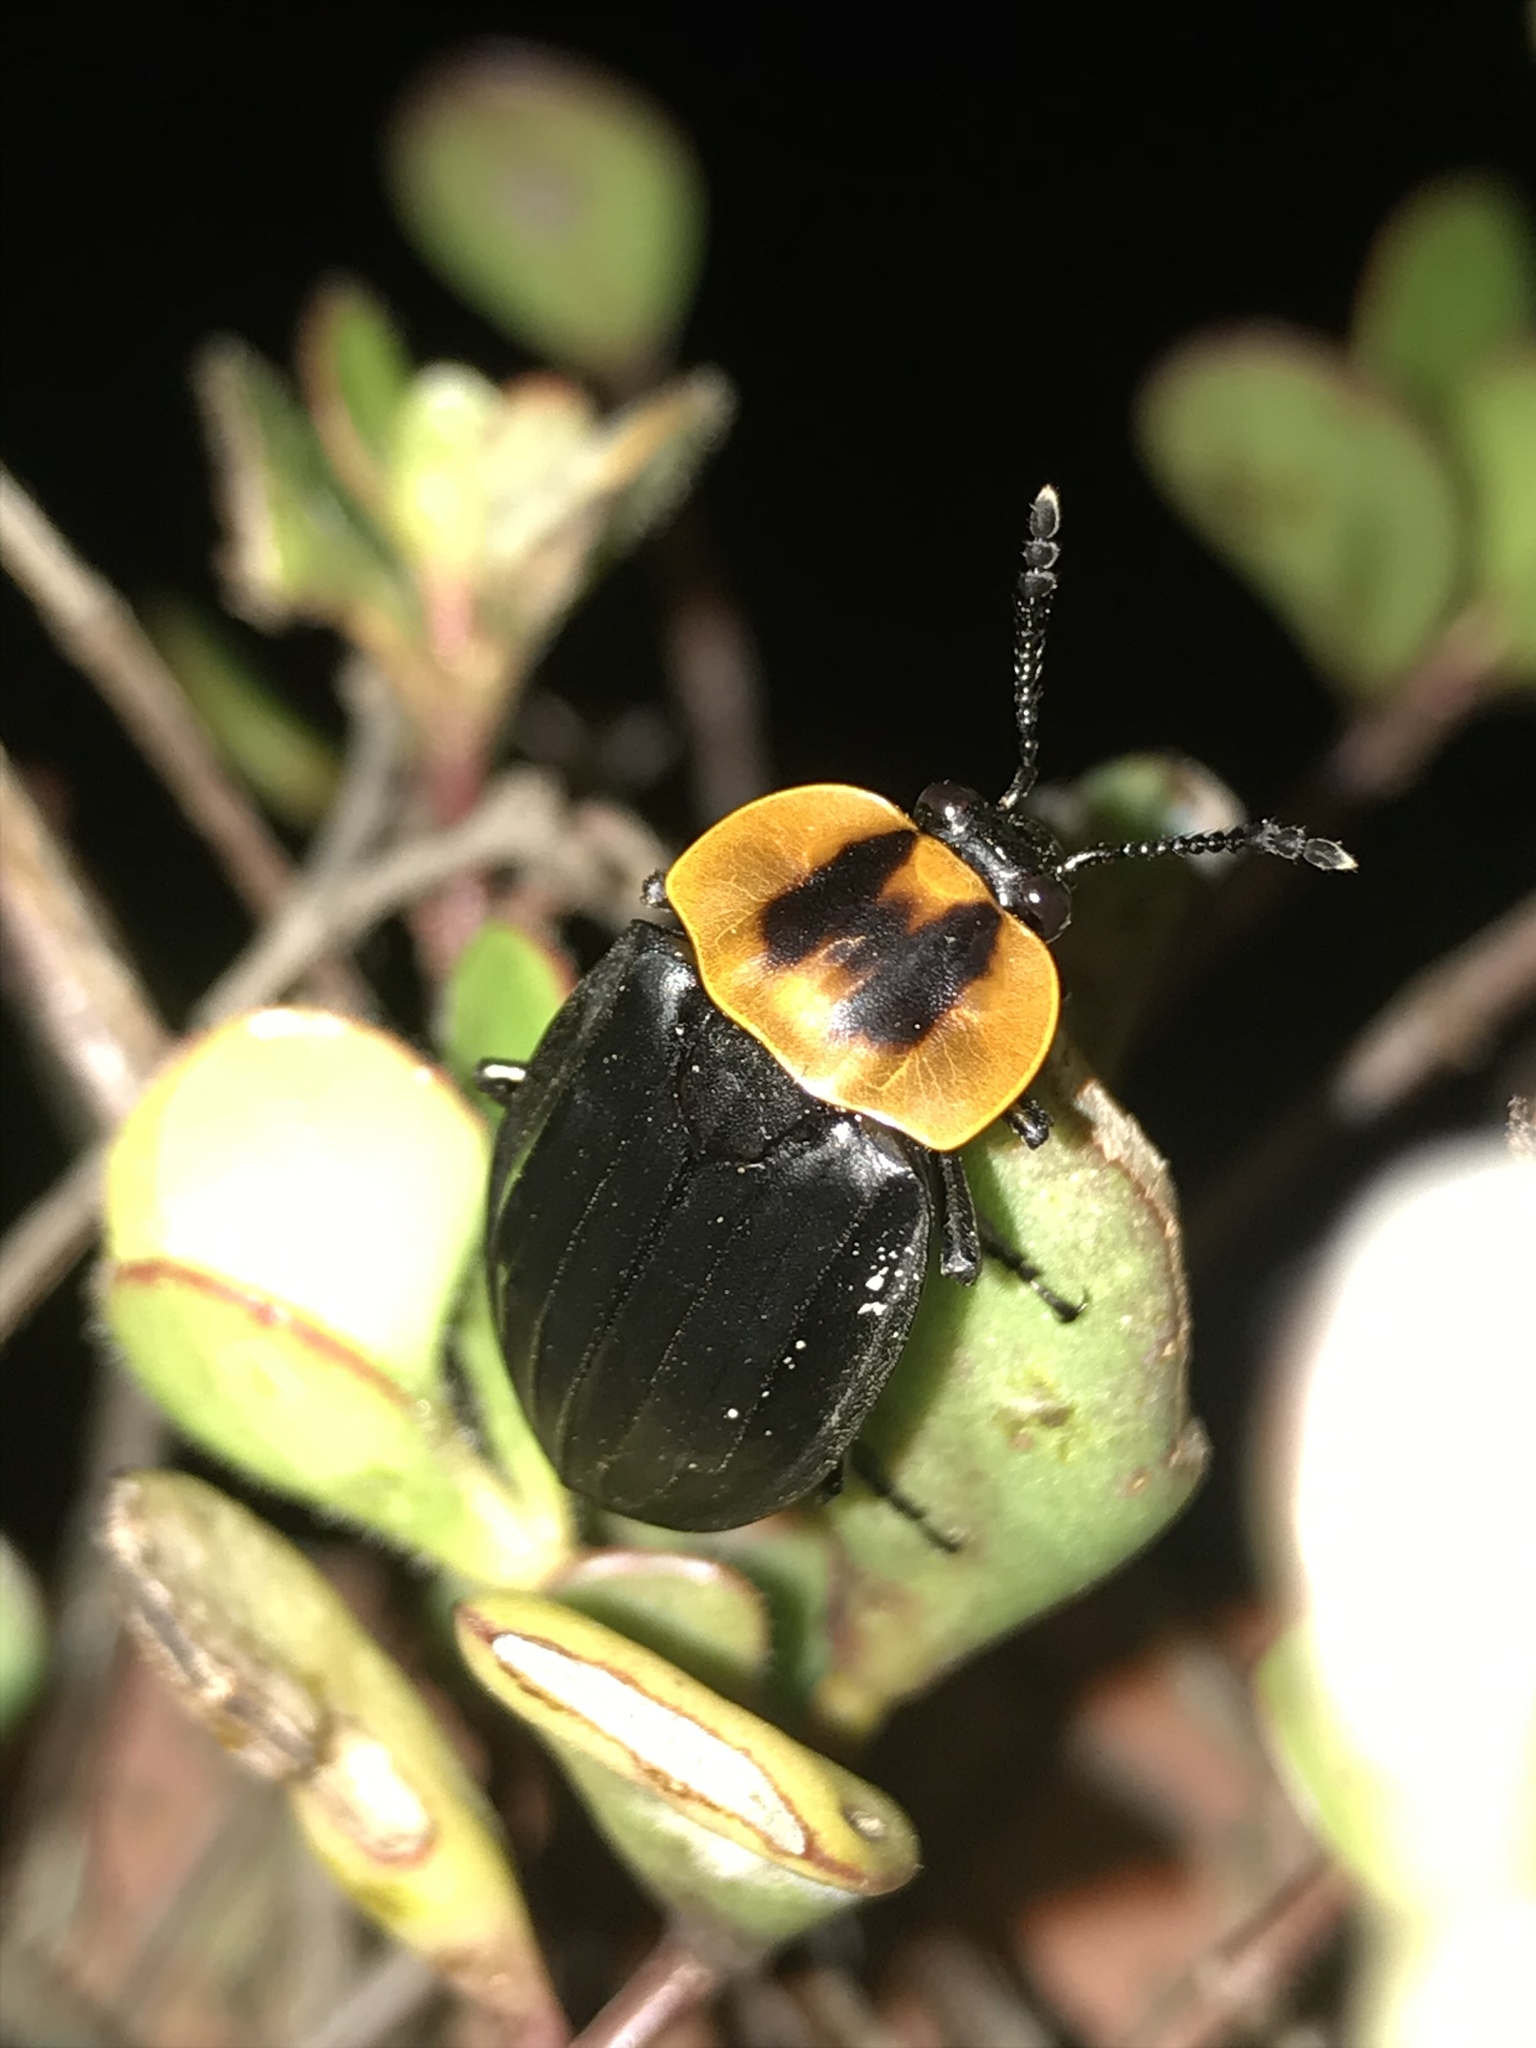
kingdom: Animalia
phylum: Arthropoda
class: Insecta
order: Coleoptera
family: Staphylinidae
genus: Oxelytrum
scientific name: Oxelytrum discicolle
